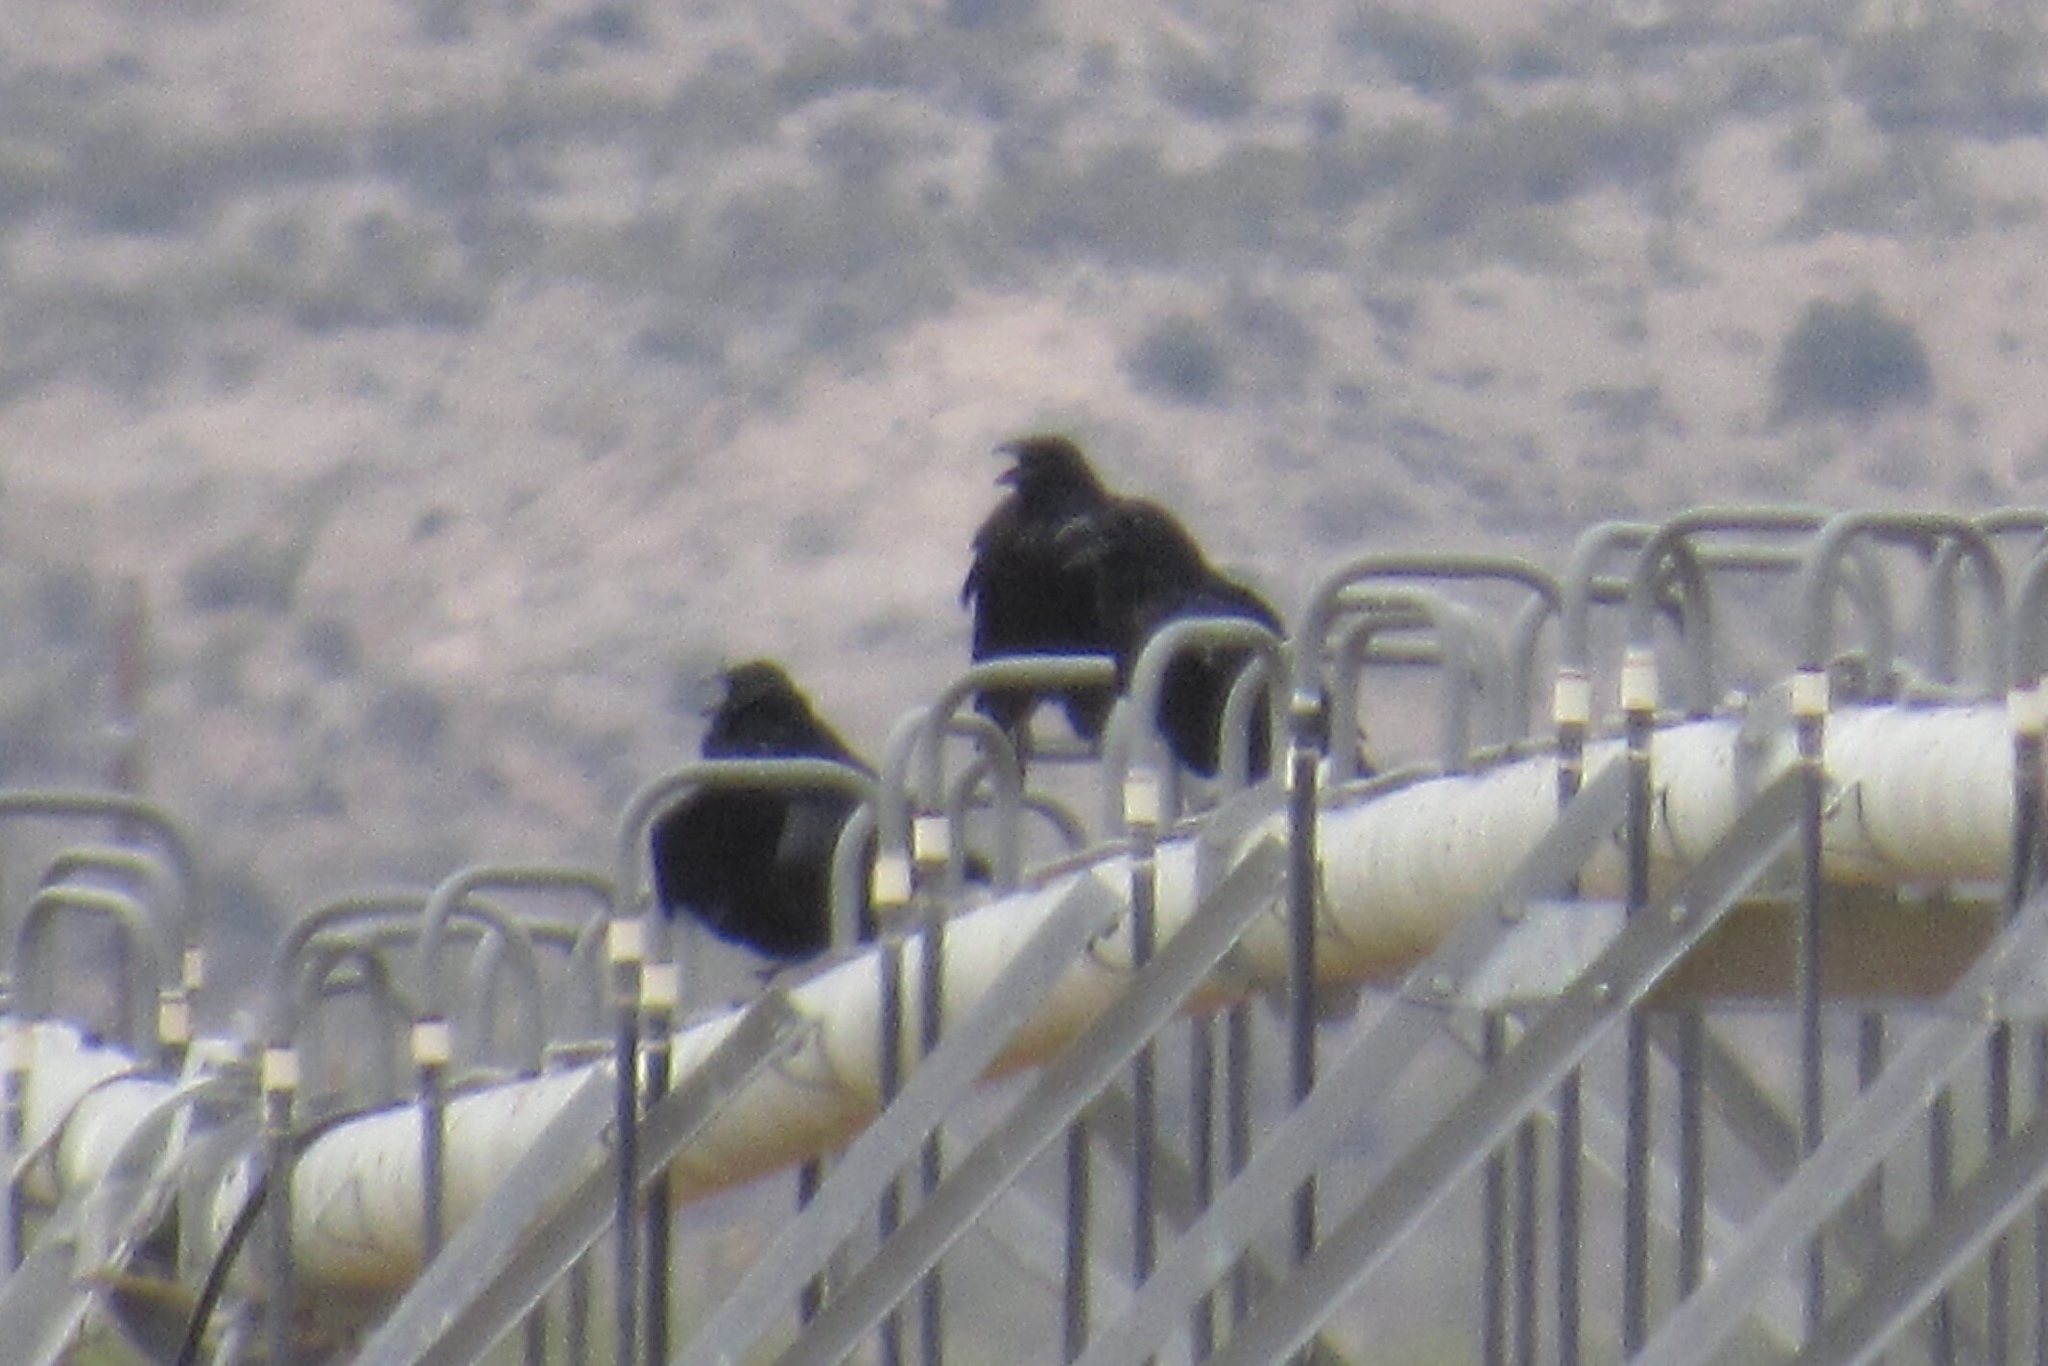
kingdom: Animalia
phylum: Chordata
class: Aves
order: Passeriformes
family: Corvidae
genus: Corvus
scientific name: Corvus corax
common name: Common raven
